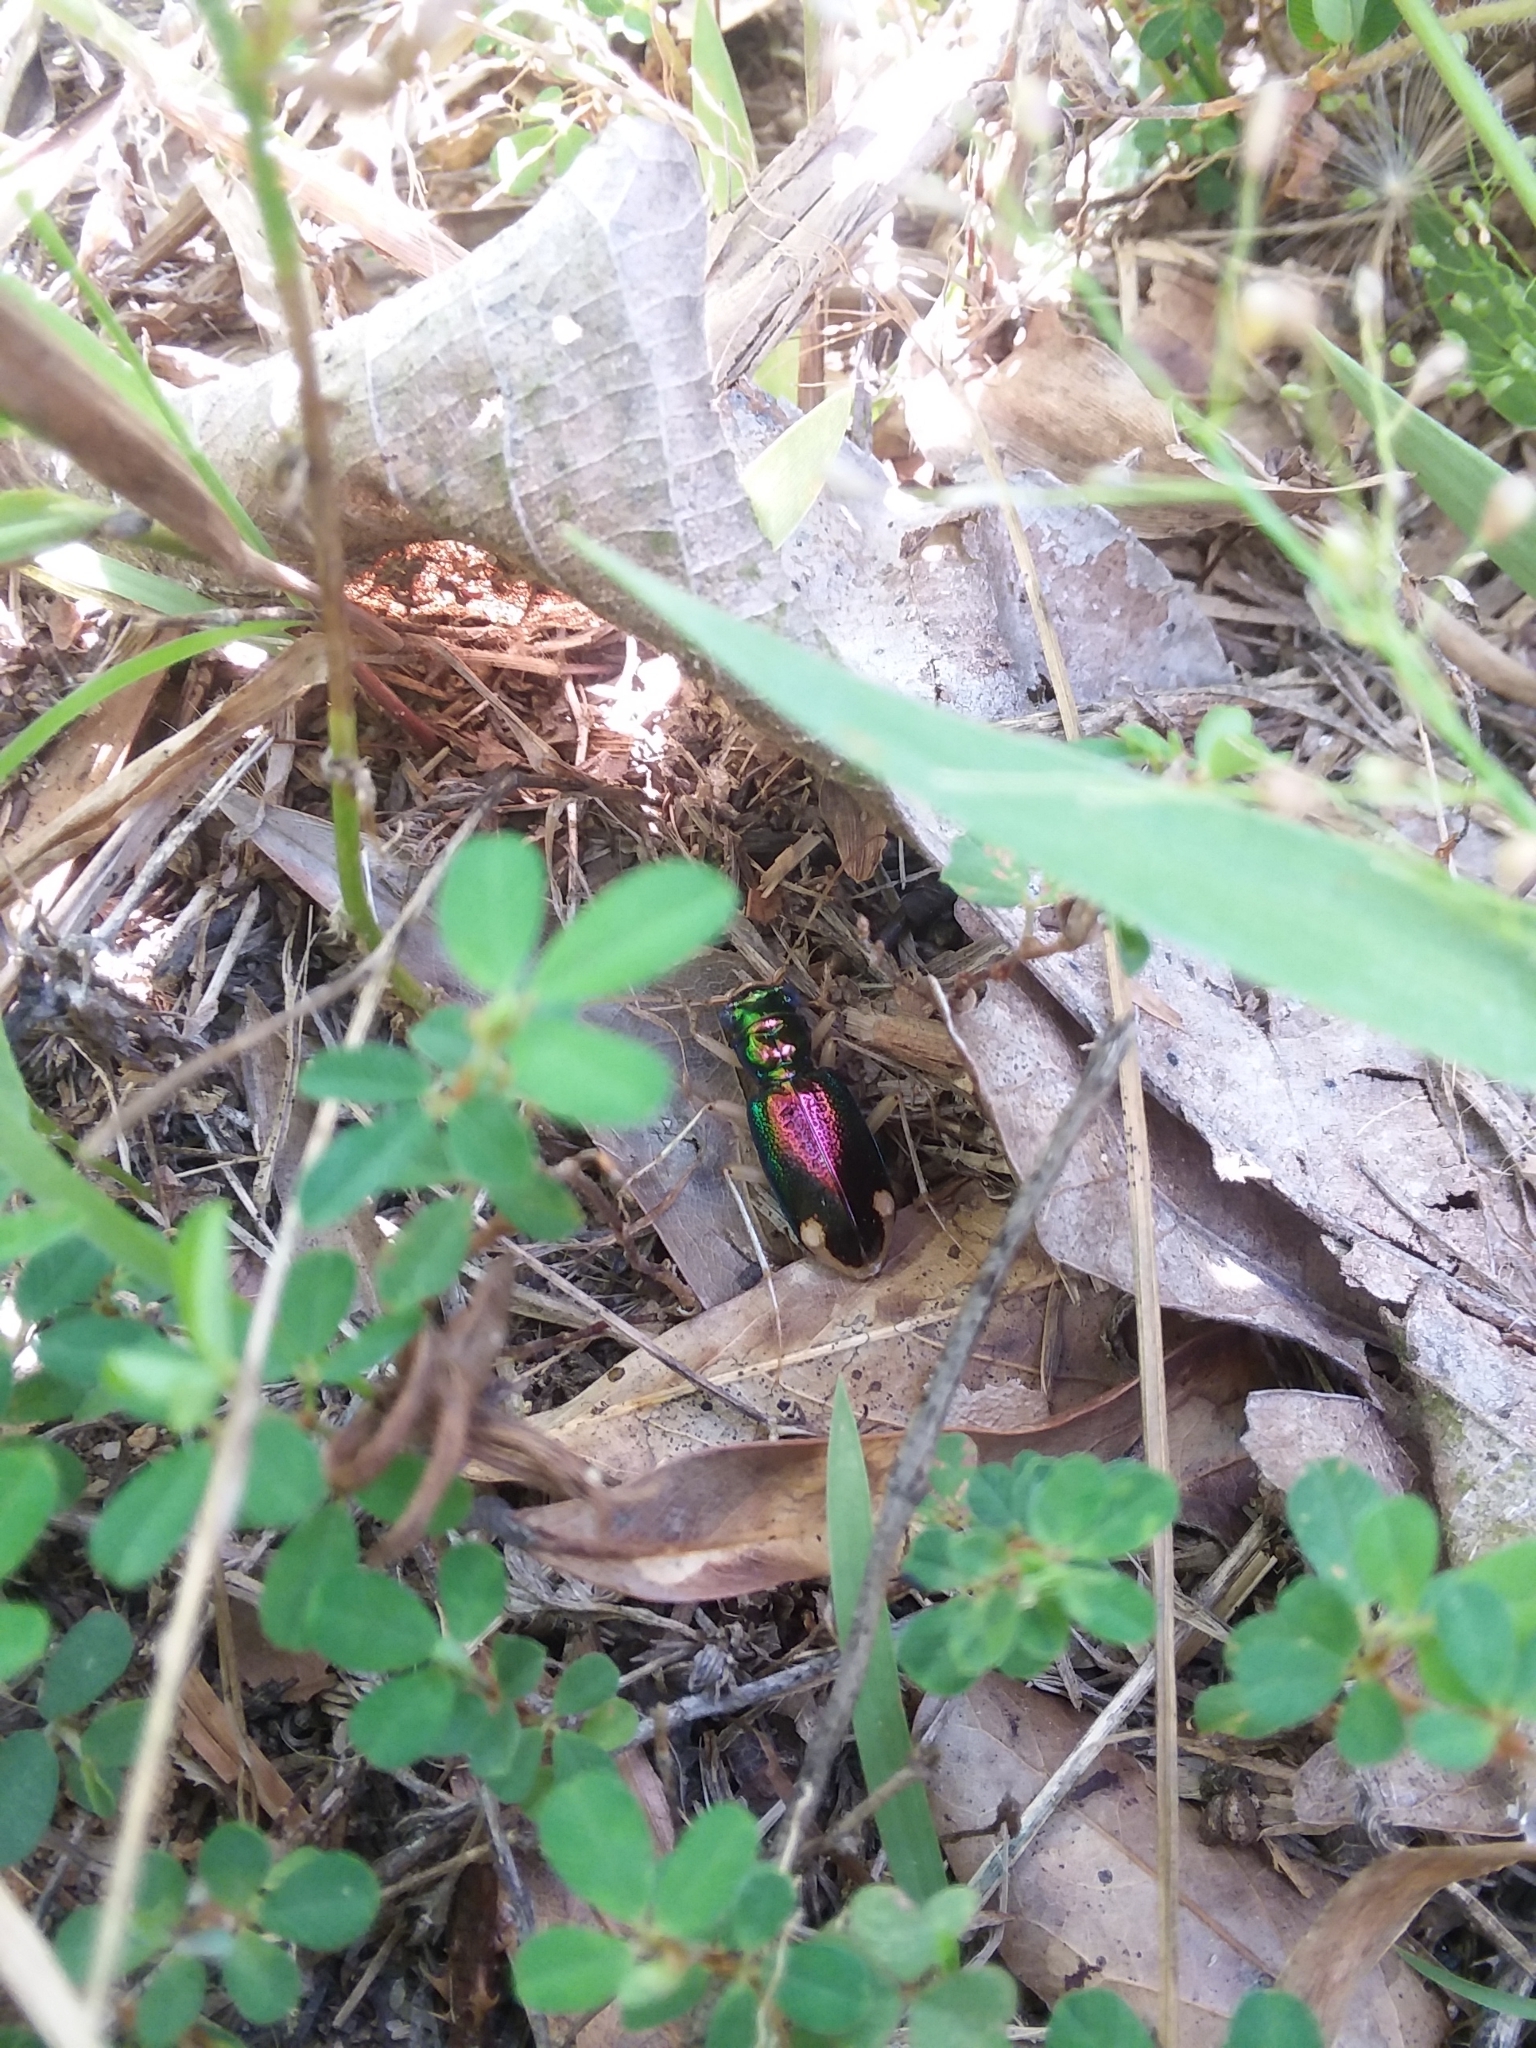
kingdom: Animalia
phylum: Arthropoda
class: Insecta
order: Coleoptera
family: Carabidae
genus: Tetracha
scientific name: Tetracha carolina
